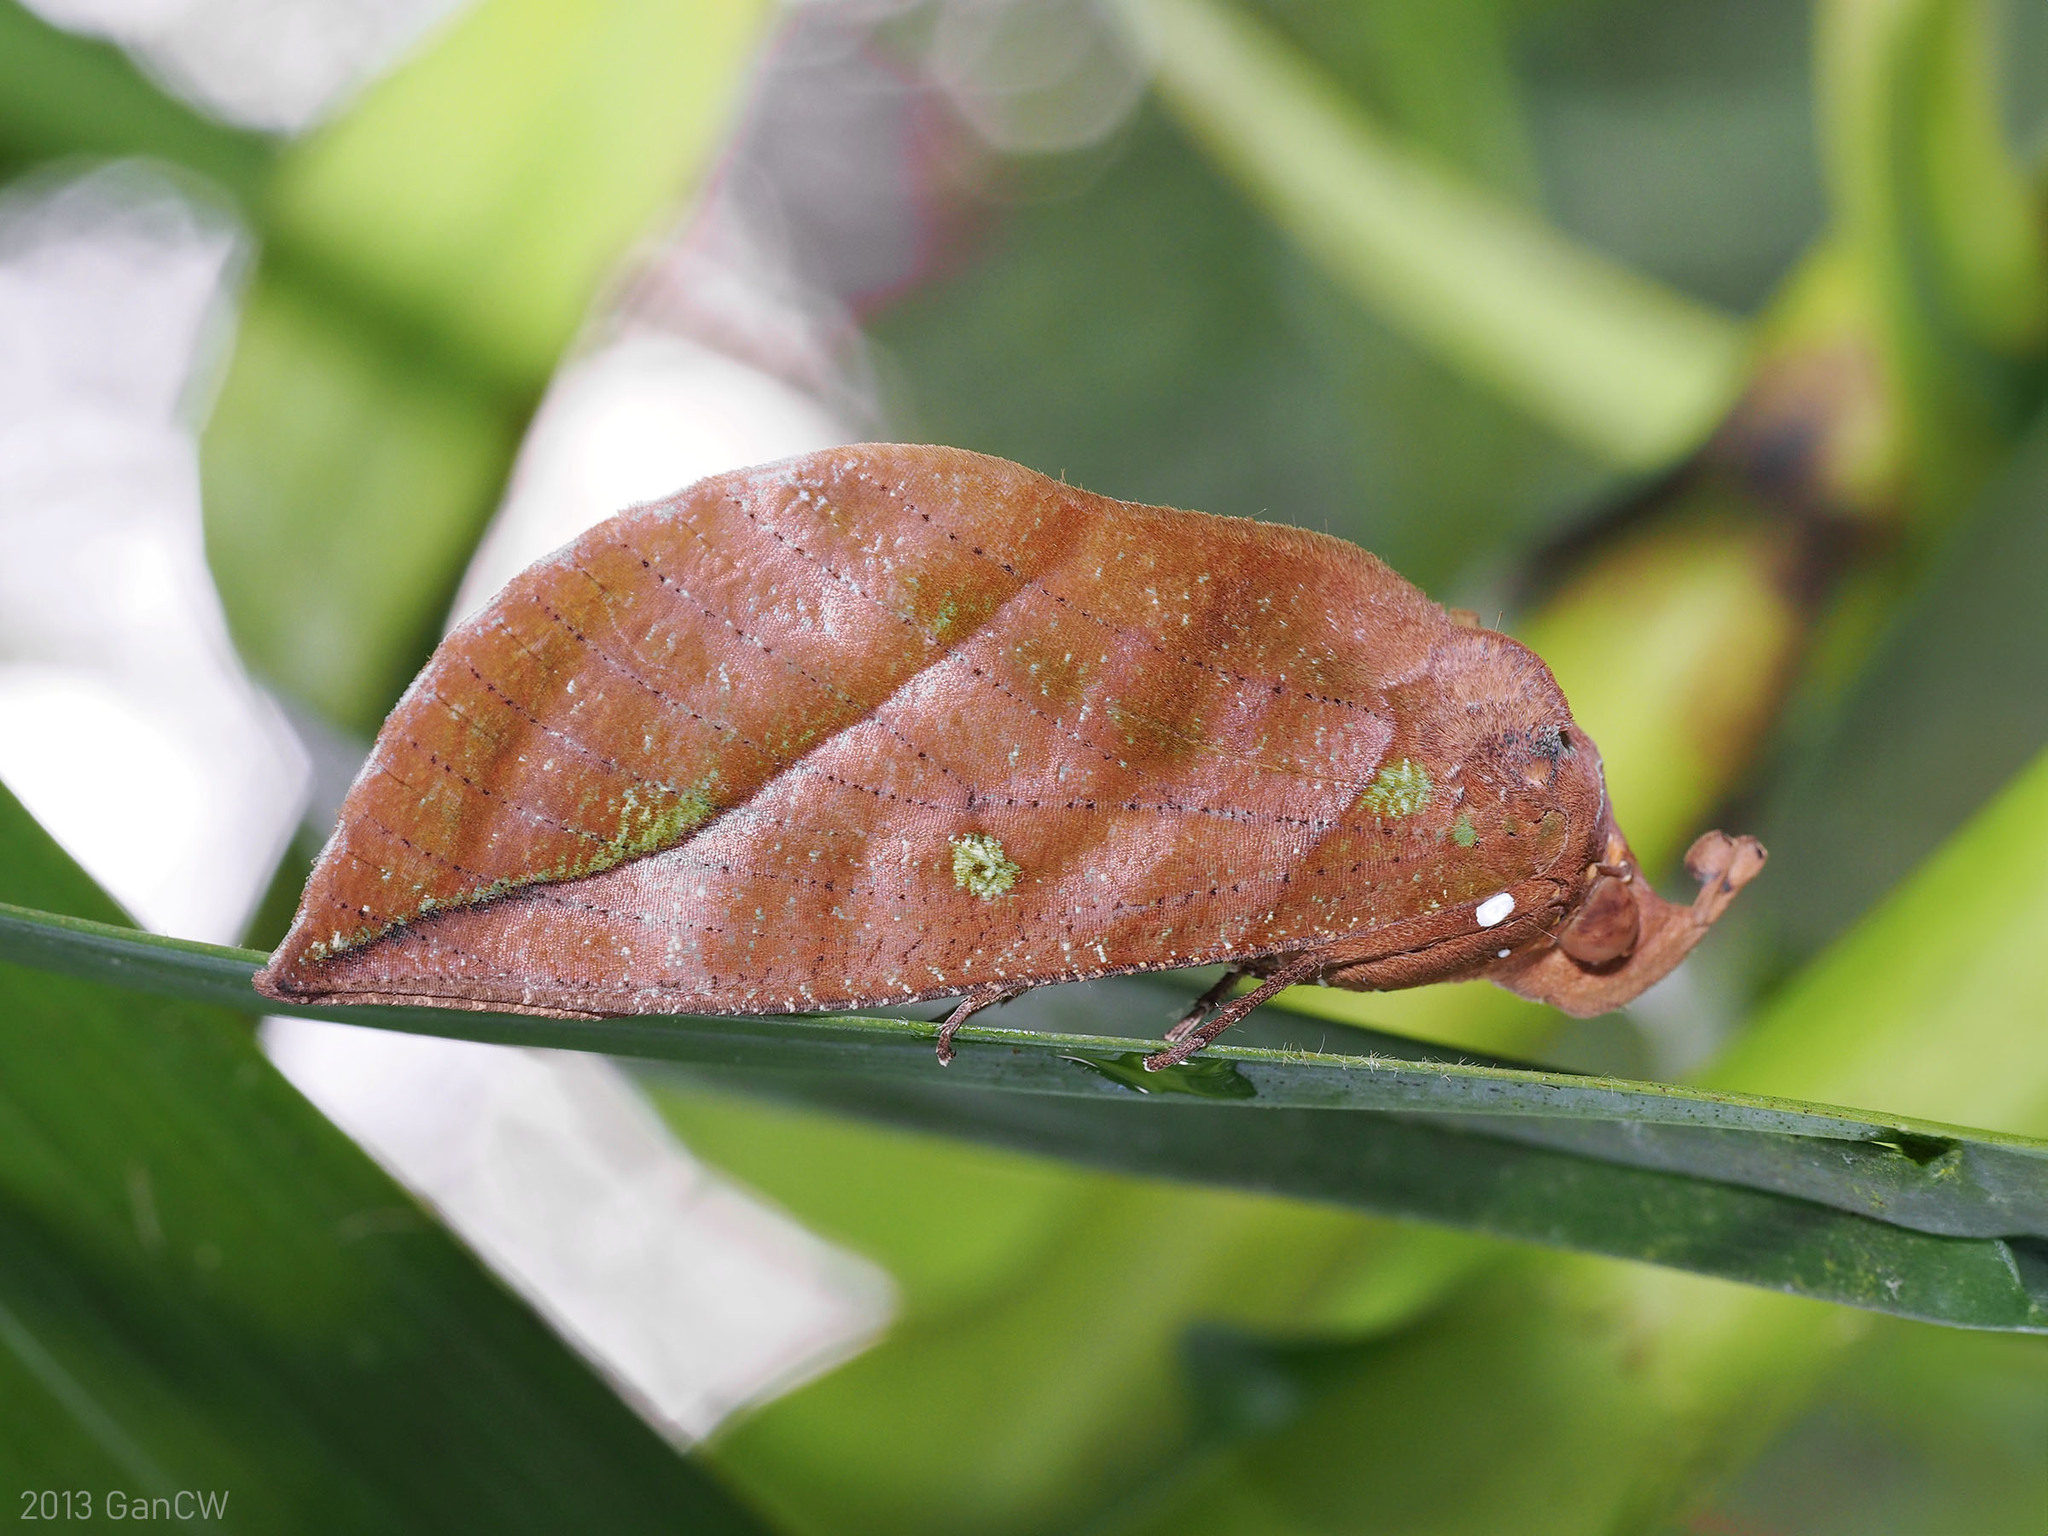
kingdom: Animalia
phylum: Arthropoda
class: Insecta
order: Lepidoptera
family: Erebidae
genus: Eudocima
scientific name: Eudocima okurai
